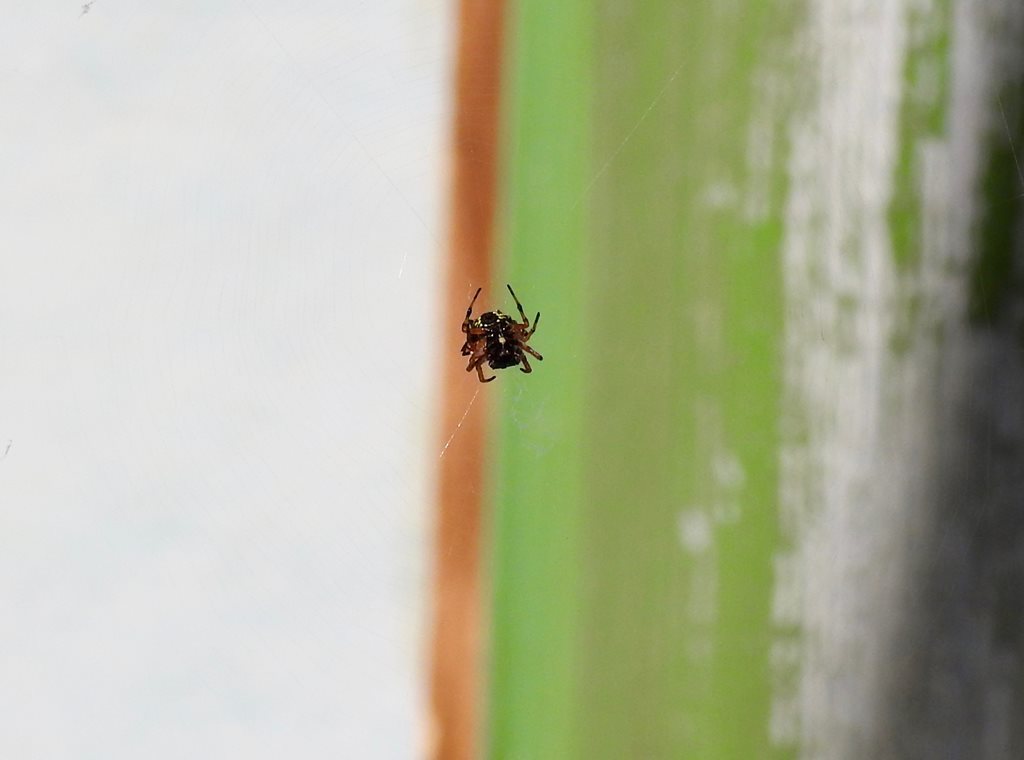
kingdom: Animalia
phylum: Arthropoda
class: Arachnida
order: Araneae
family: Araneidae
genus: Austracantha
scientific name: Austracantha minax
